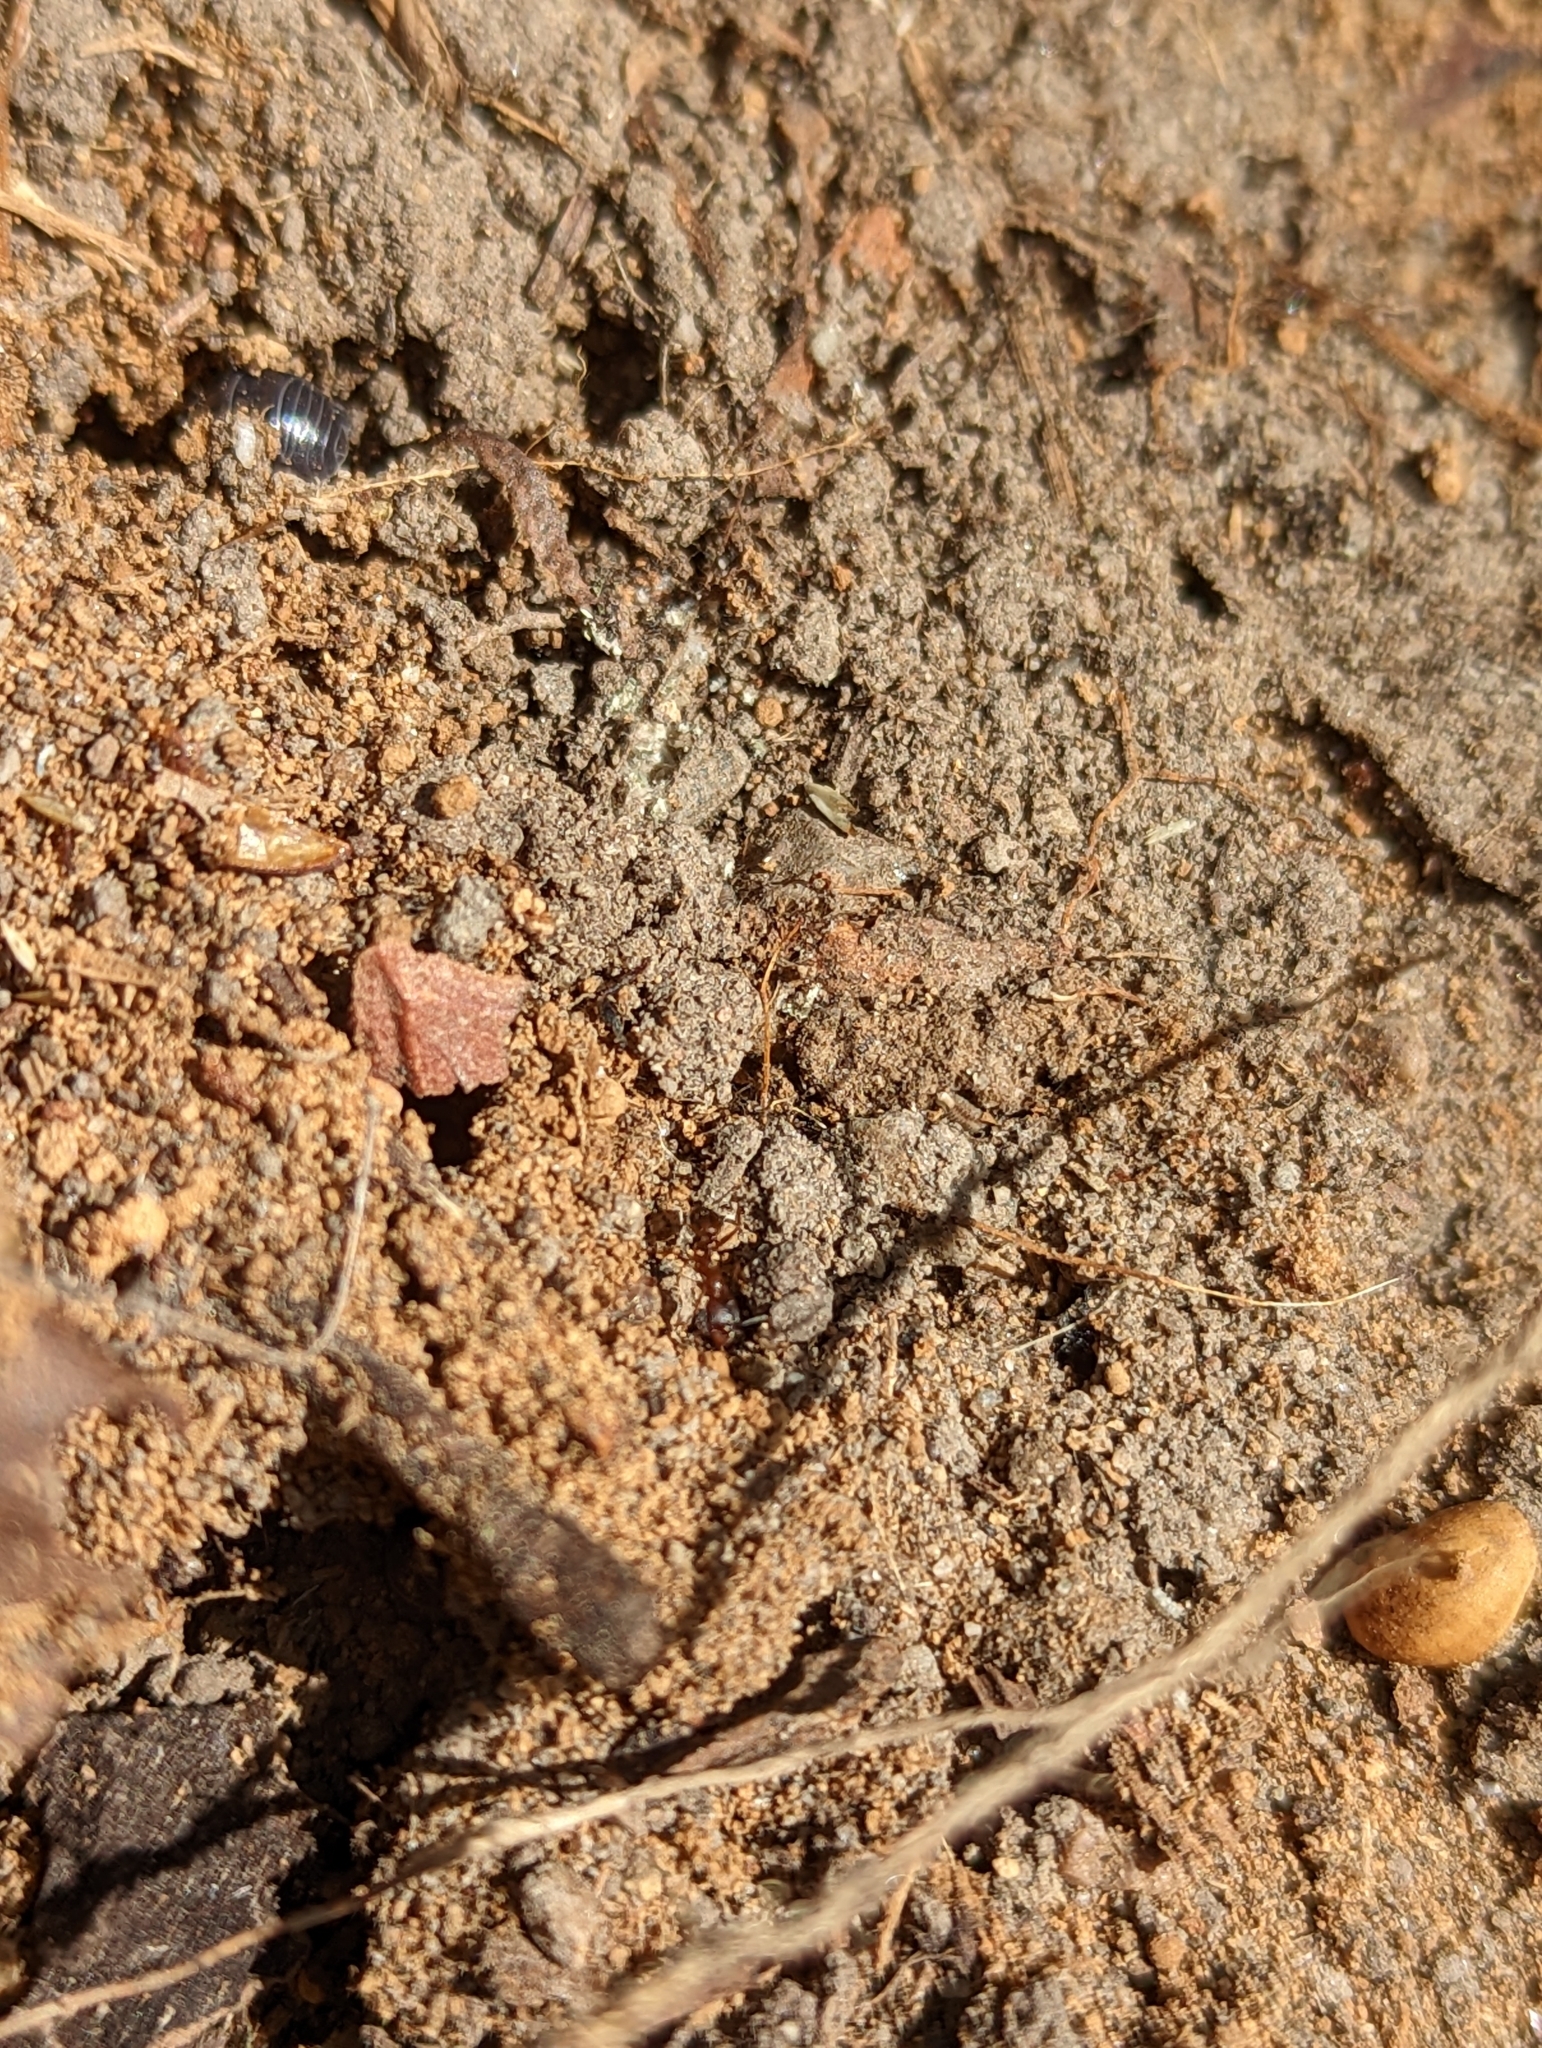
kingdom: Animalia
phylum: Arthropoda
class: Insecta
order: Hymenoptera
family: Formicidae
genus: Aphaenogaster
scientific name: Aphaenogaster occidentalis
